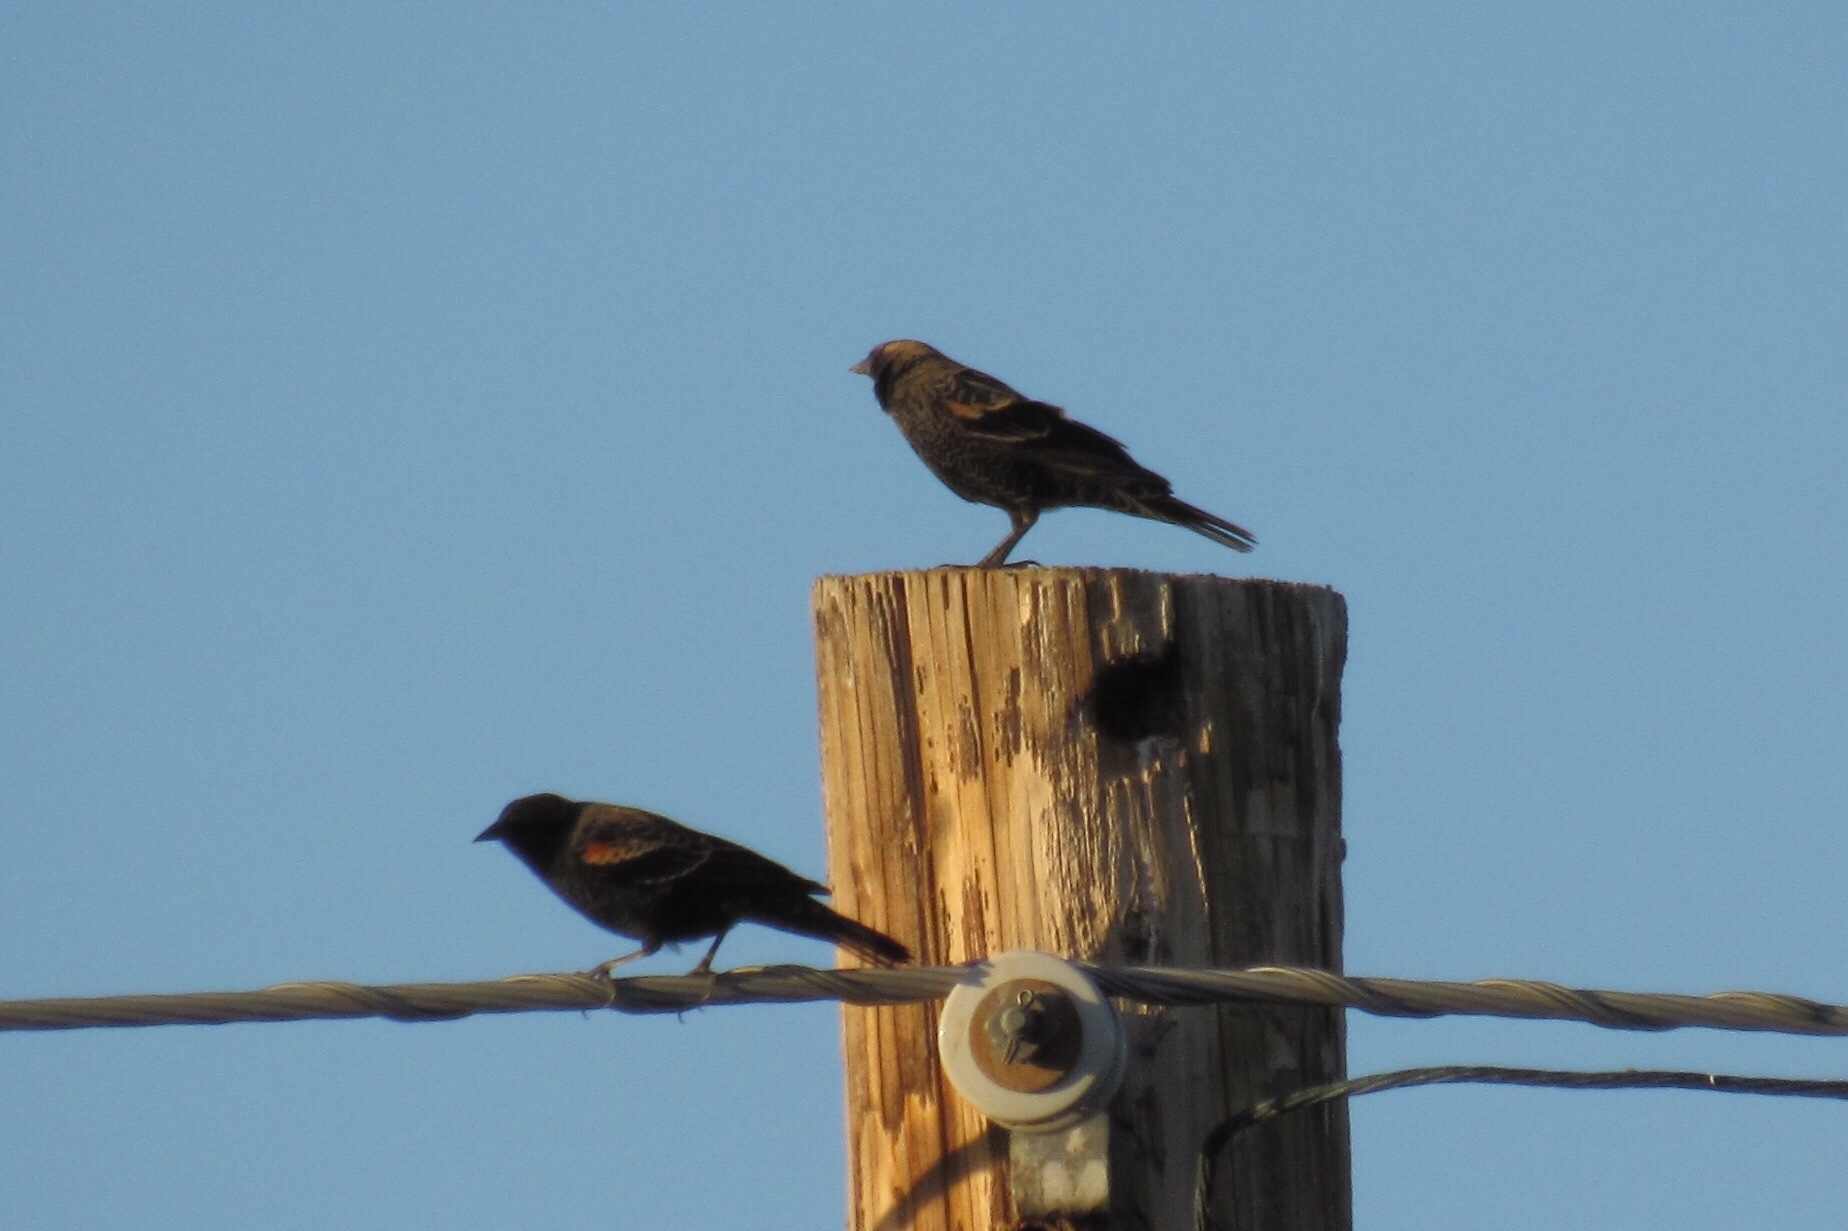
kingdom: Animalia
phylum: Chordata
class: Aves
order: Passeriformes
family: Icteridae
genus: Agelaius
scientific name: Agelaius phoeniceus
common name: Red-winged blackbird
